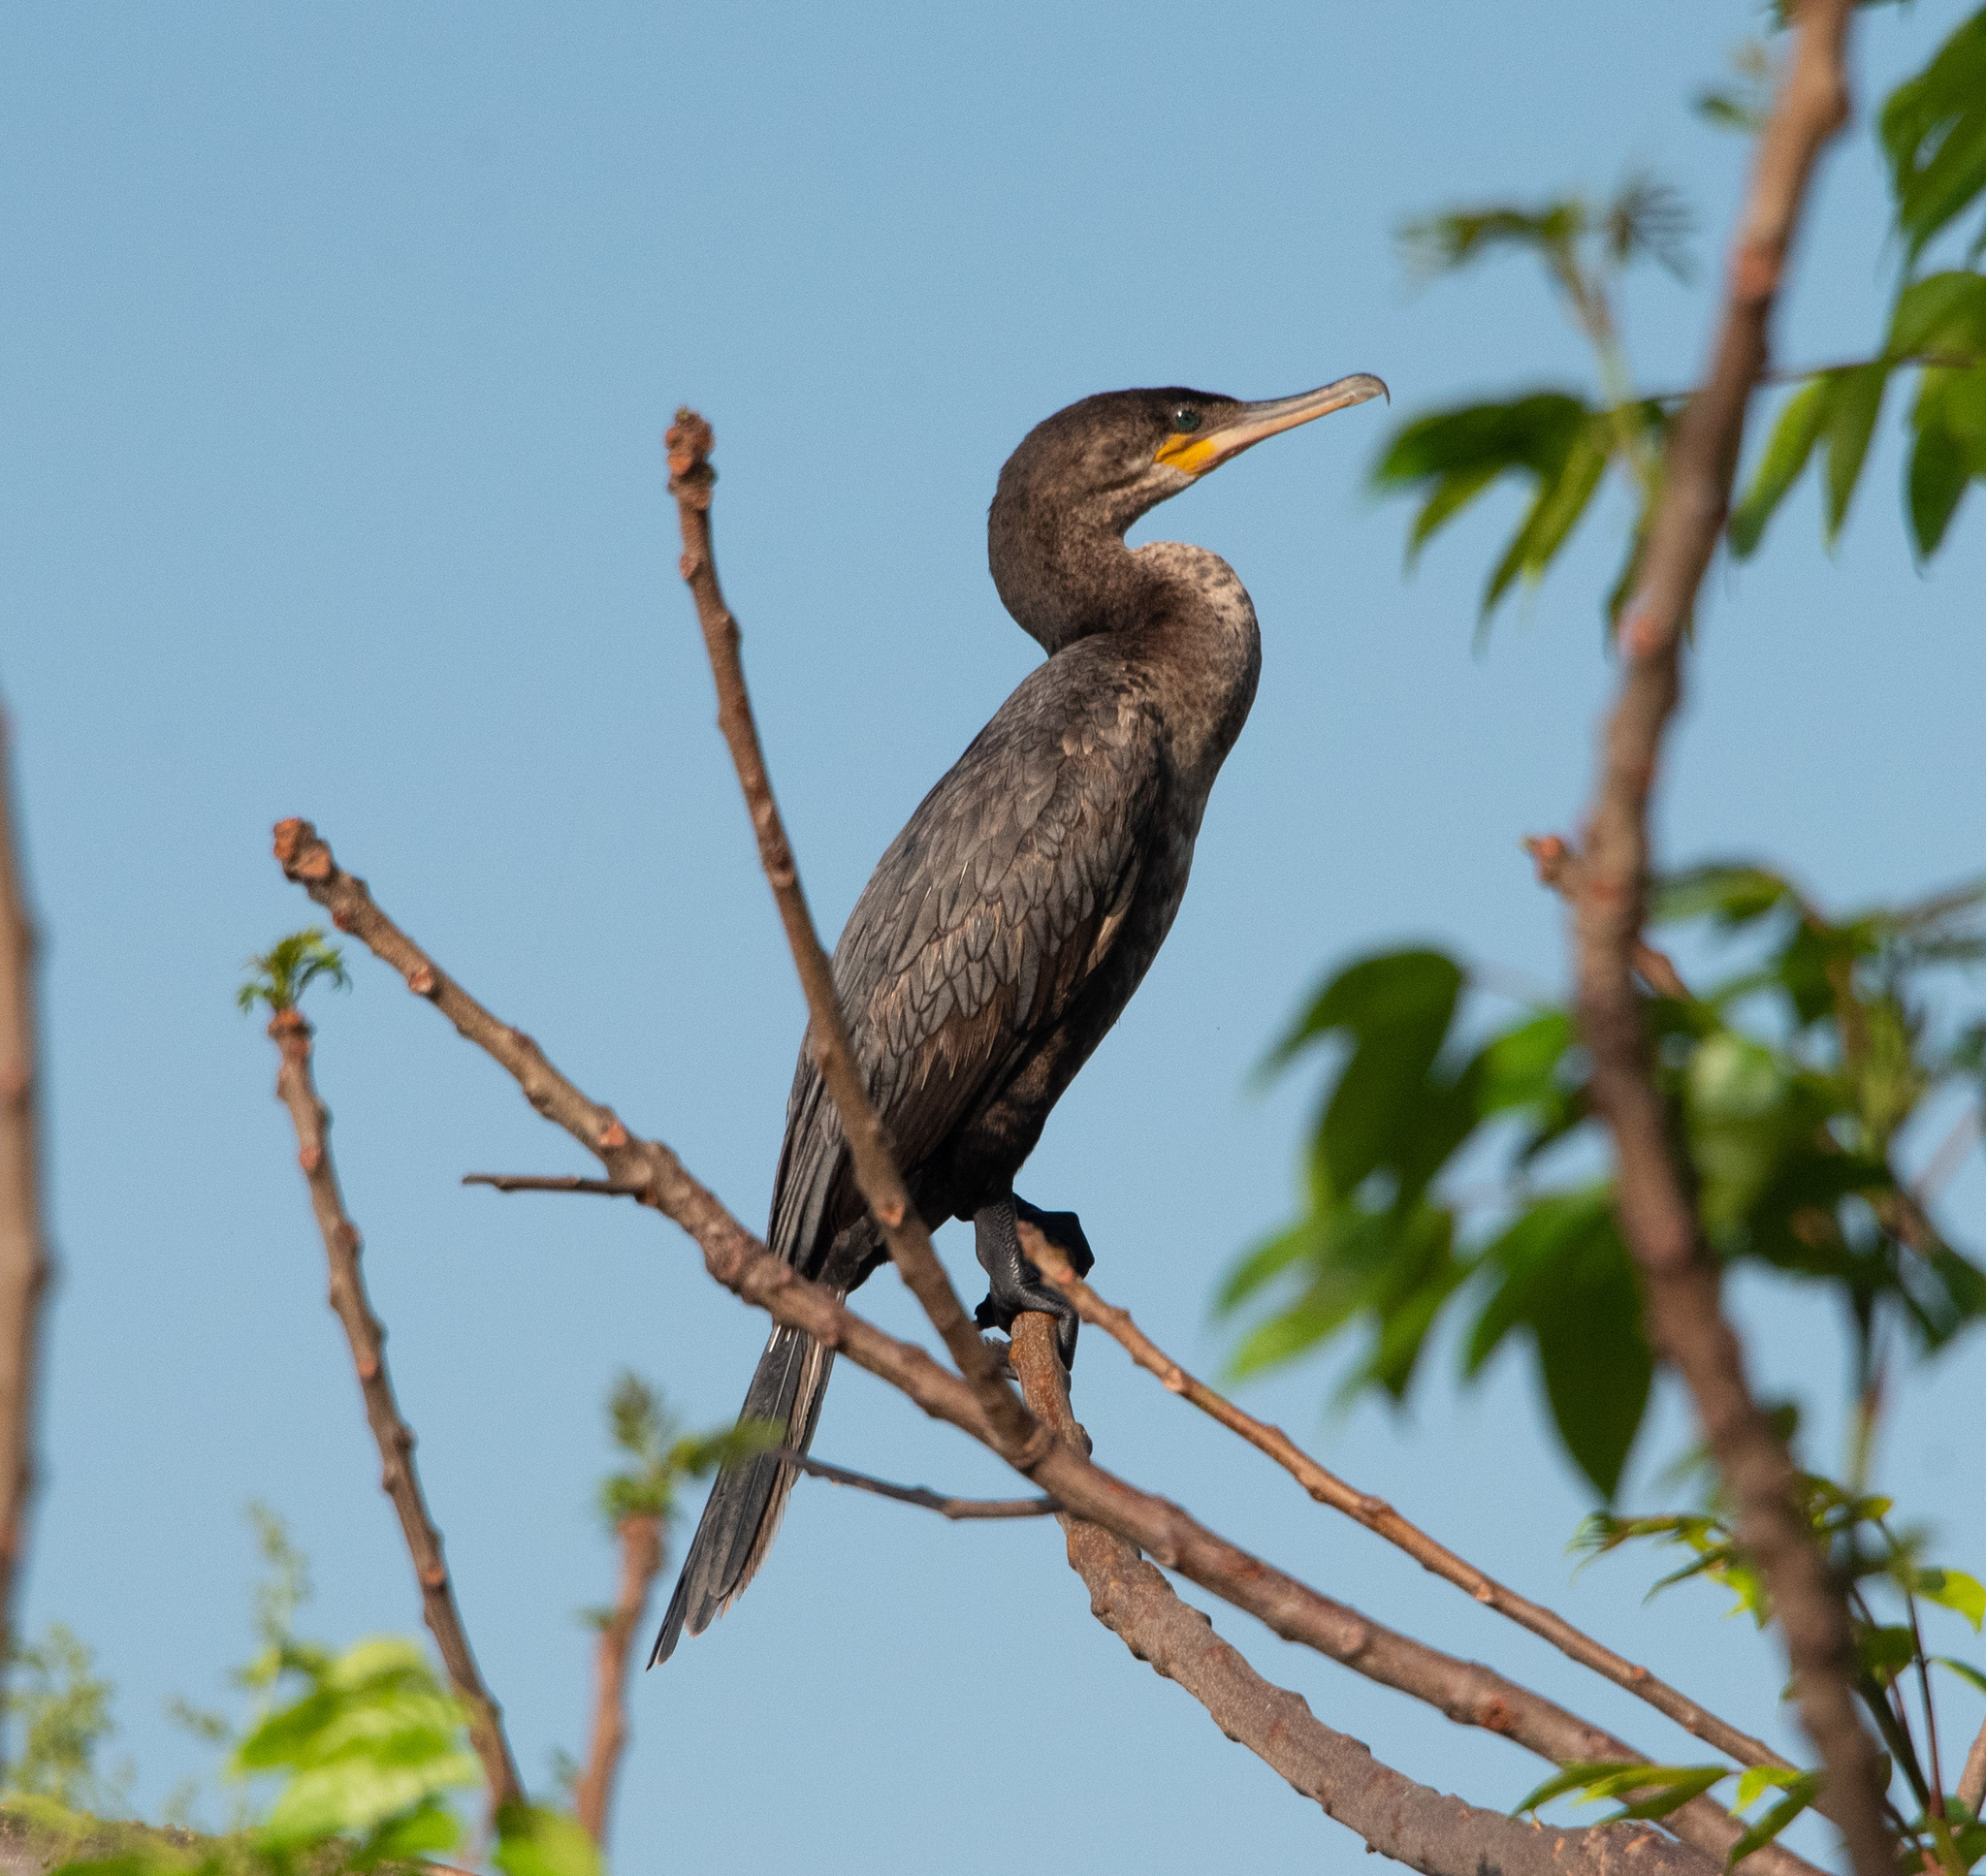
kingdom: Animalia
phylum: Chordata
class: Aves
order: Suliformes
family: Phalacrocoracidae
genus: Phalacrocorax
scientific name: Phalacrocorax brasilianus
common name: Neotropic cormorant
